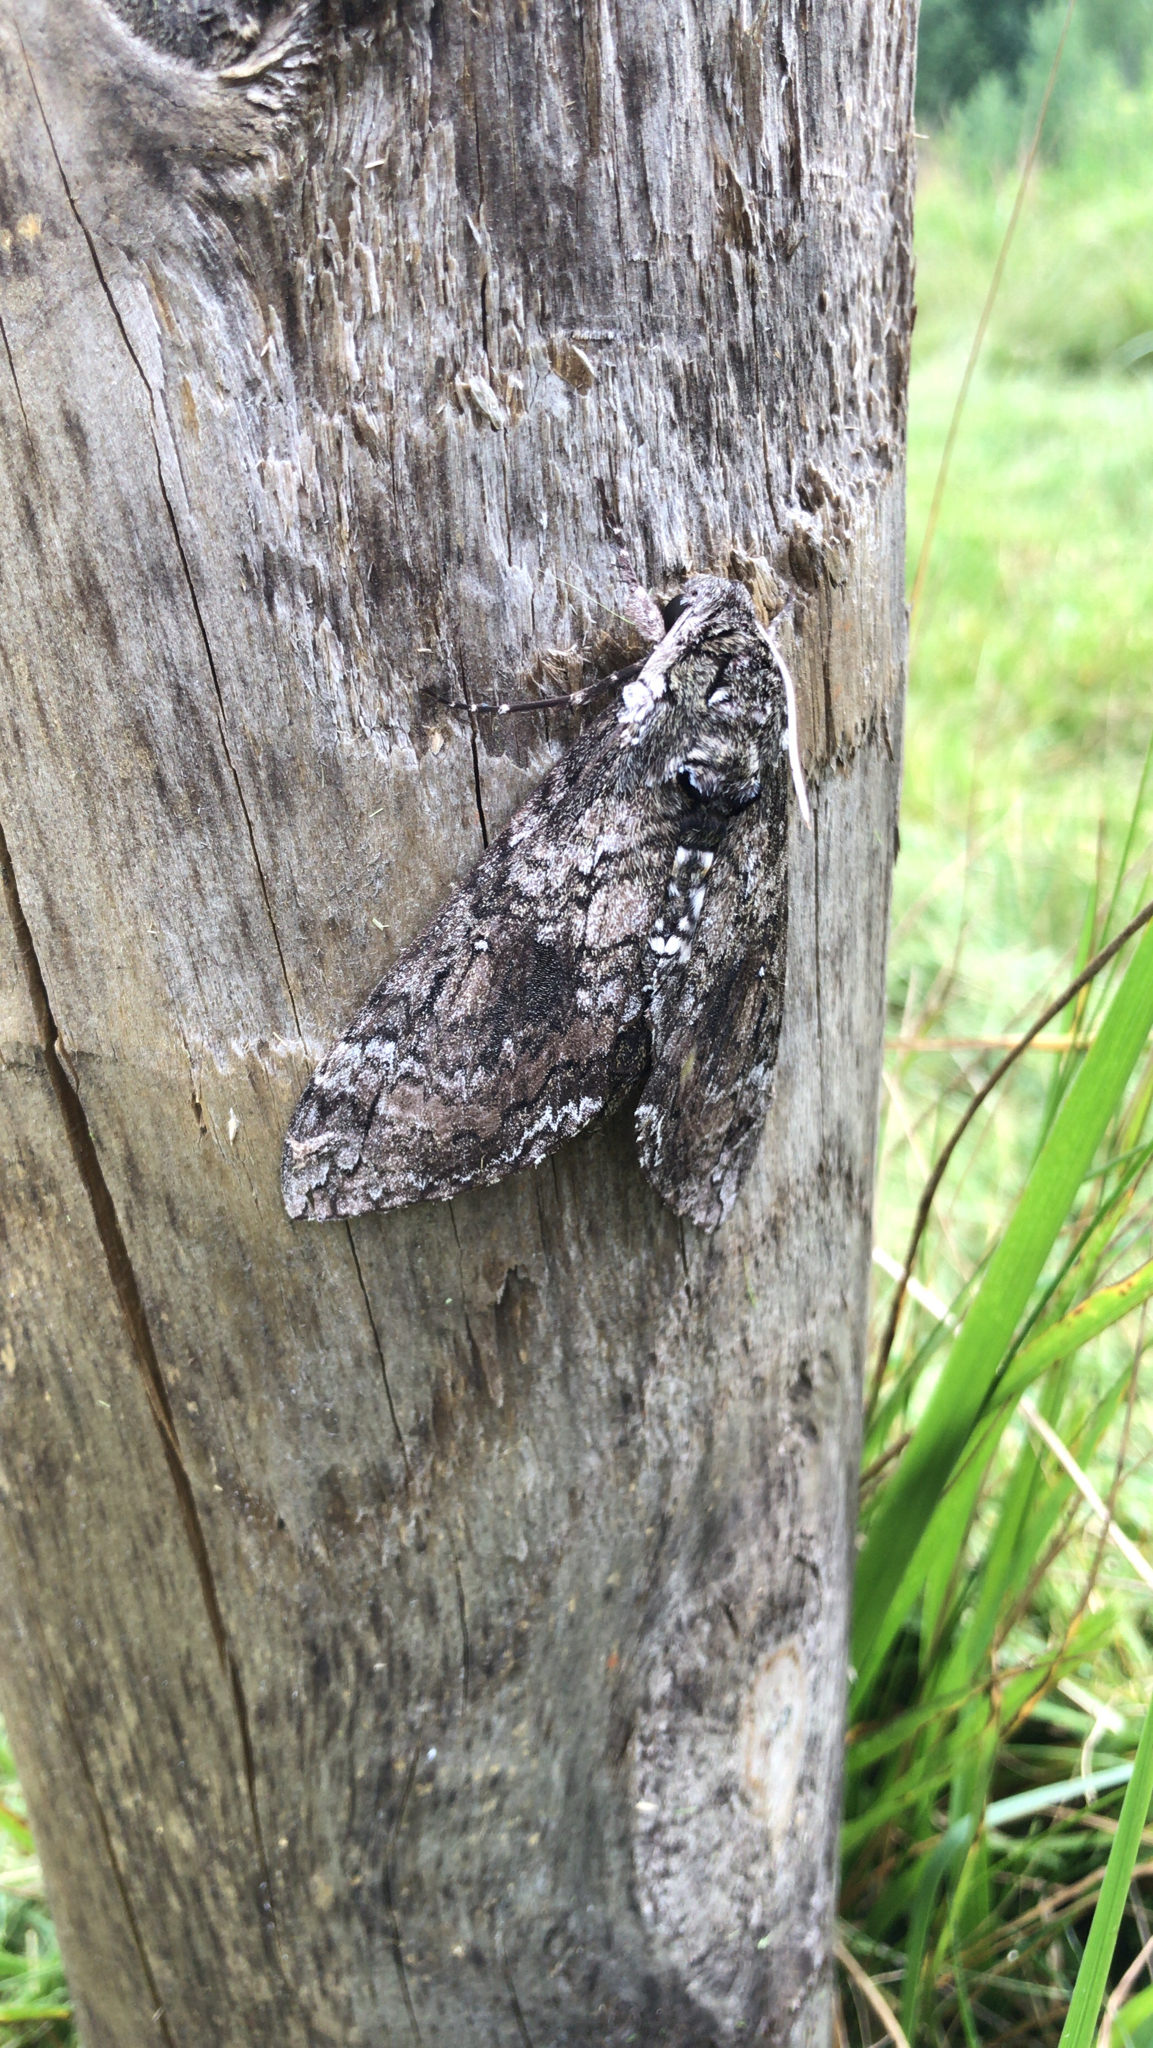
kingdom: Animalia
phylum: Arthropoda
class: Insecta
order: Lepidoptera
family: Sphingidae
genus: Manduca
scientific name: Manduca sexta
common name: Carolina sphinx
